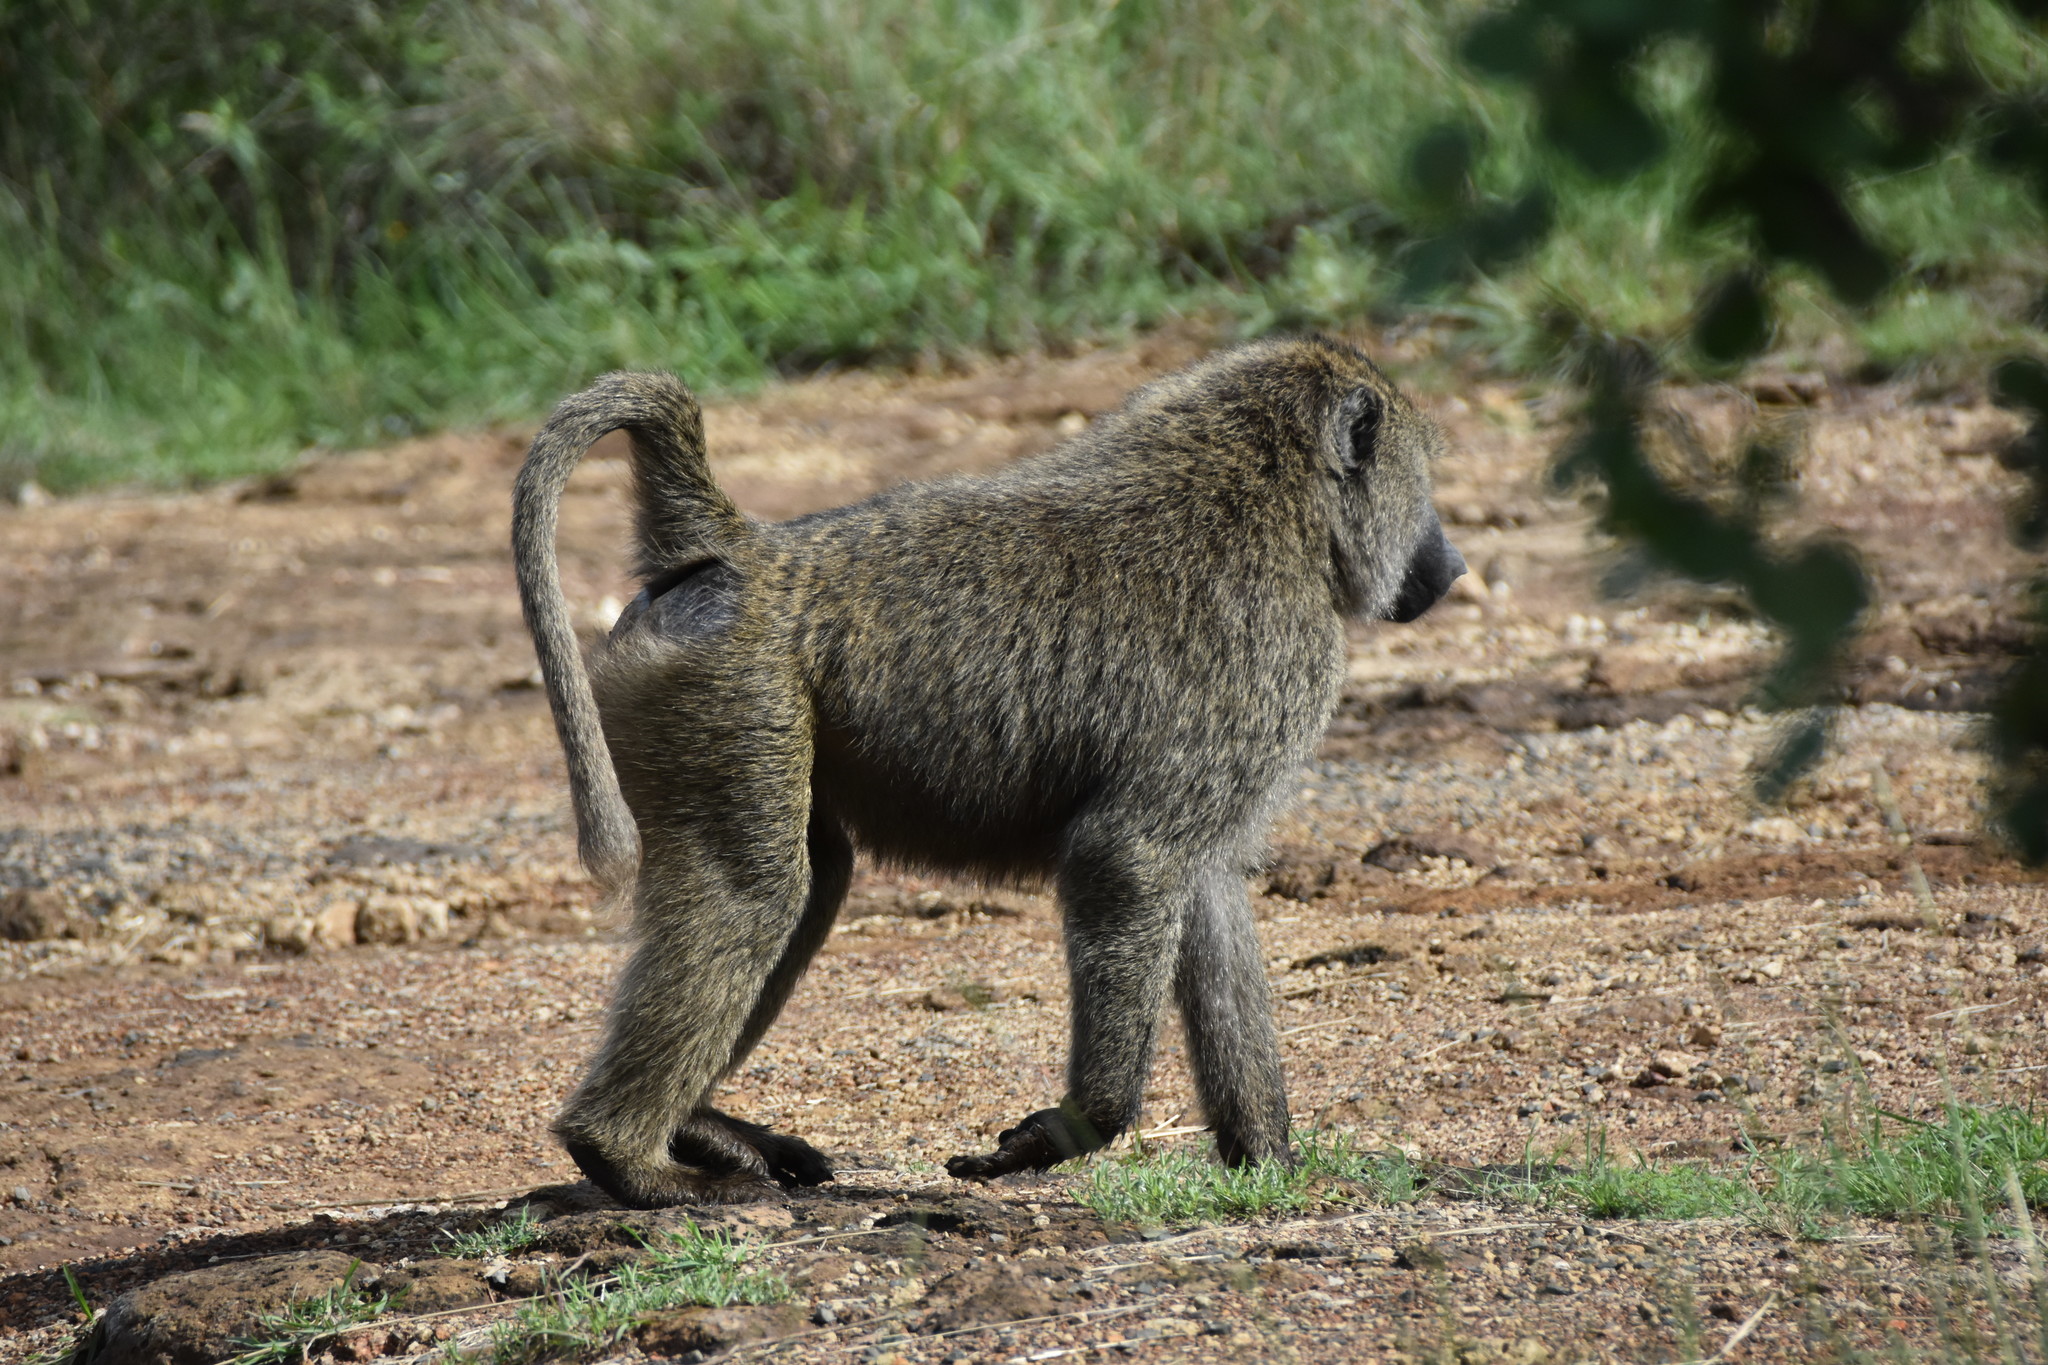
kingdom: Animalia
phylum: Chordata
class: Mammalia
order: Primates
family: Cercopithecidae
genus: Papio
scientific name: Papio anubis
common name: Olive baboon
